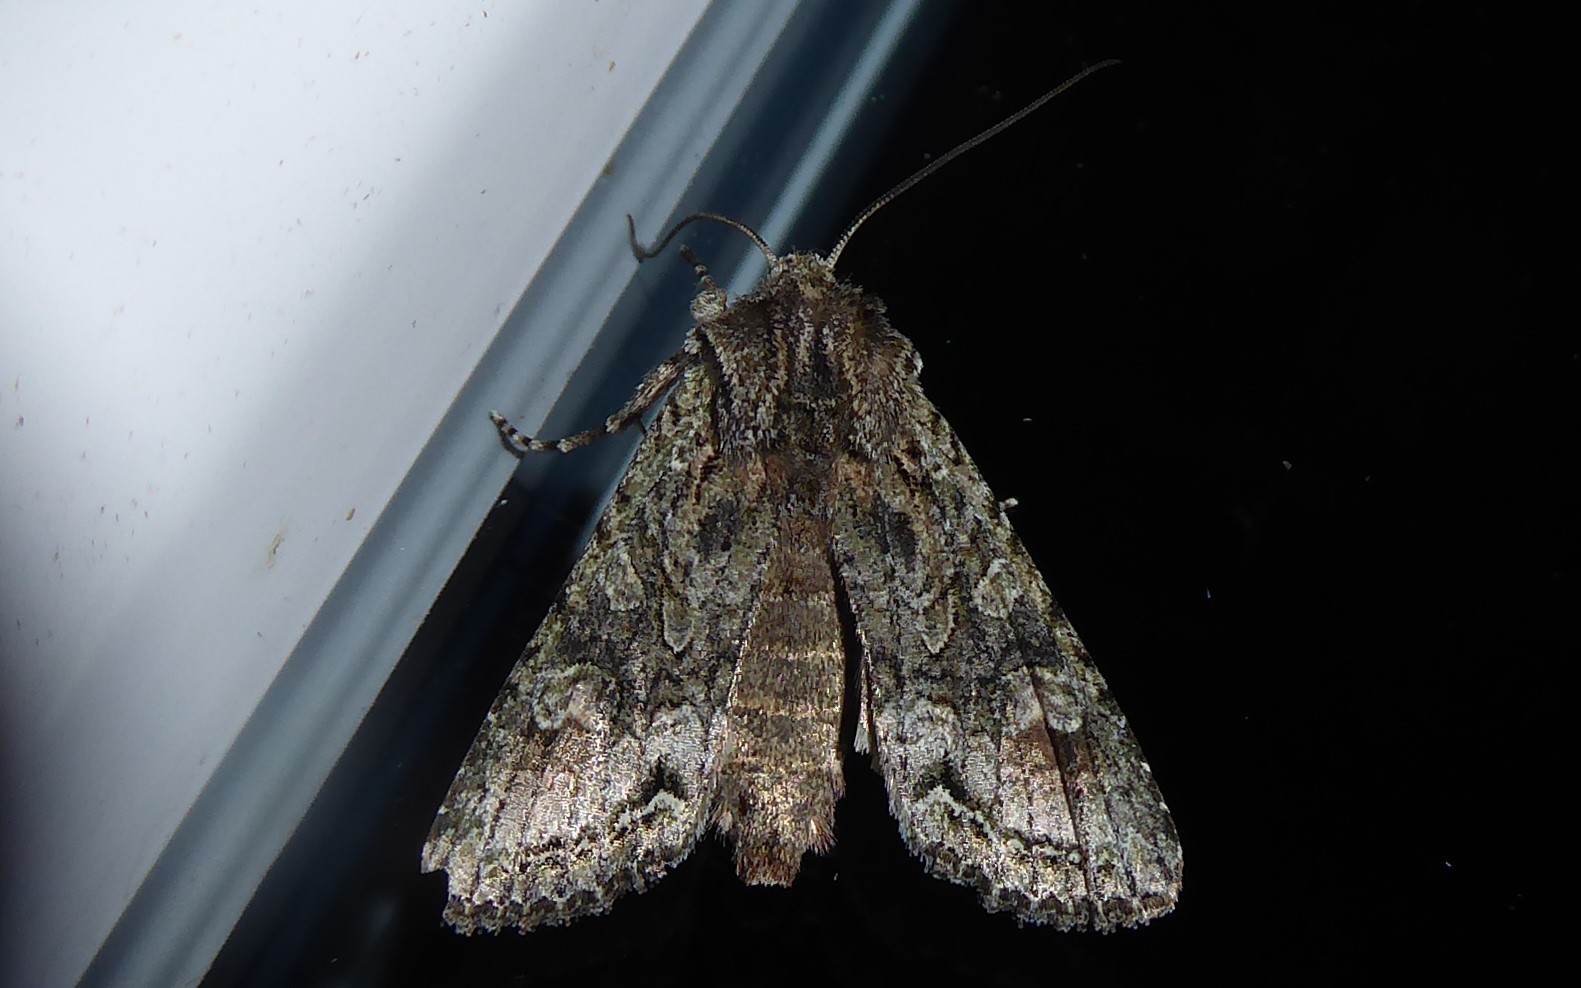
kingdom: Animalia
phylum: Arthropoda
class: Insecta
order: Lepidoptera
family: Noctuidae
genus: Ichneutica
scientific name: Ichneutica mutans
